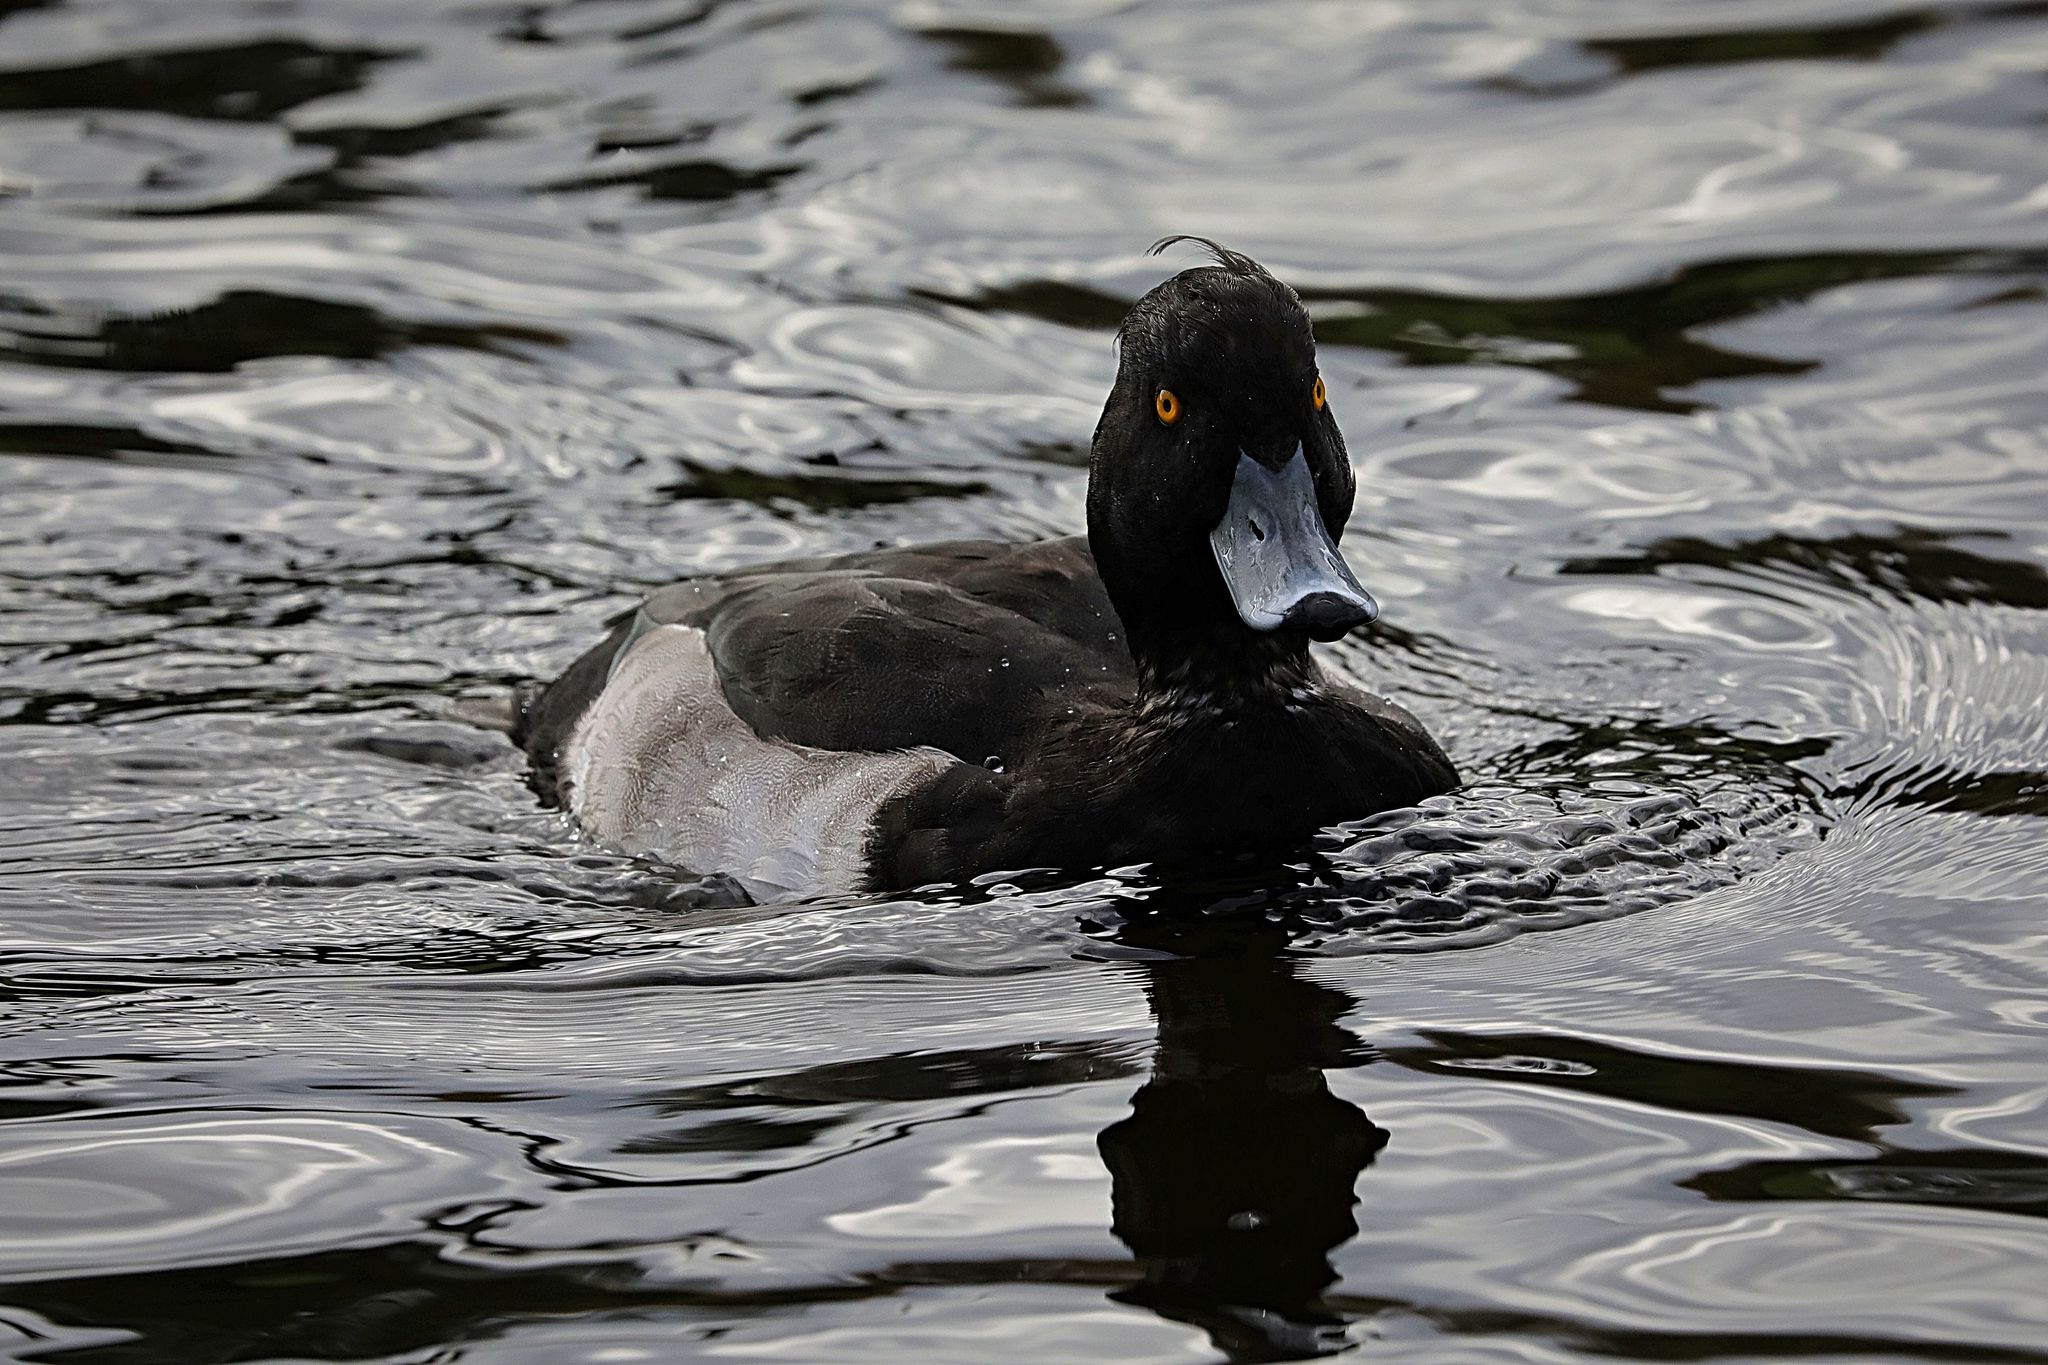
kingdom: Animalia
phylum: Chordata
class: Aves
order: Anseriformes
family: Anatidae
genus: Aythya
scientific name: Aythya fuligula
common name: Tufted duck
